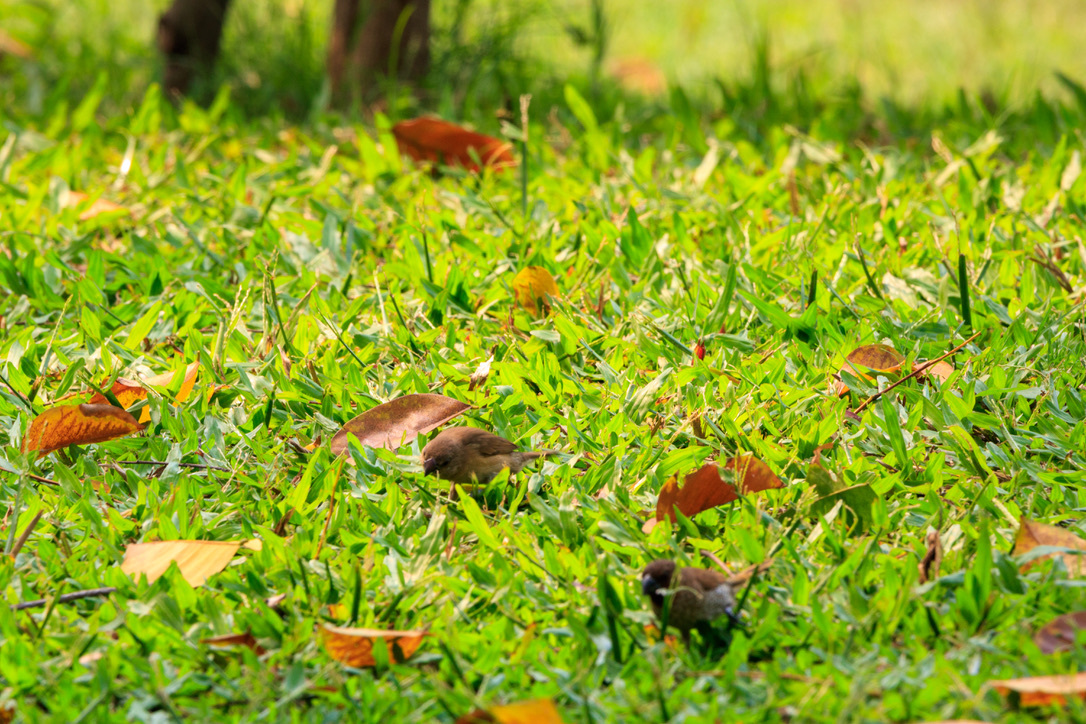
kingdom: Animalia
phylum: Chordata
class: Aves
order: Passeriformes
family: Estrildidae
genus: Lonchura
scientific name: Lonchura punctulata
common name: Scaly-breasted munia
